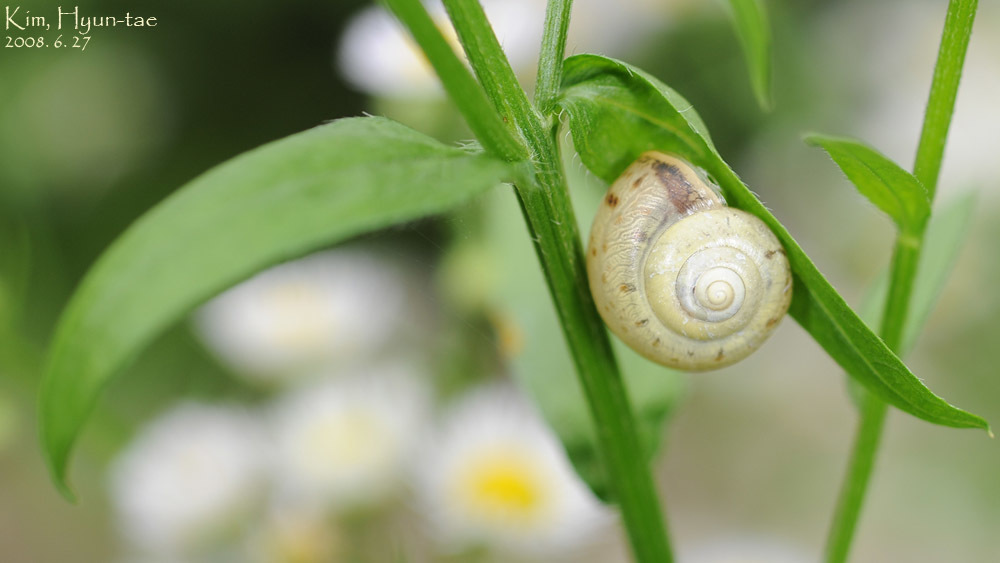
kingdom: Animalia
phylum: Mollusca
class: Gastropoda
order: Stylommatophora
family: Camaenidae
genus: Chosenelix
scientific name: Chosenelix problematica
